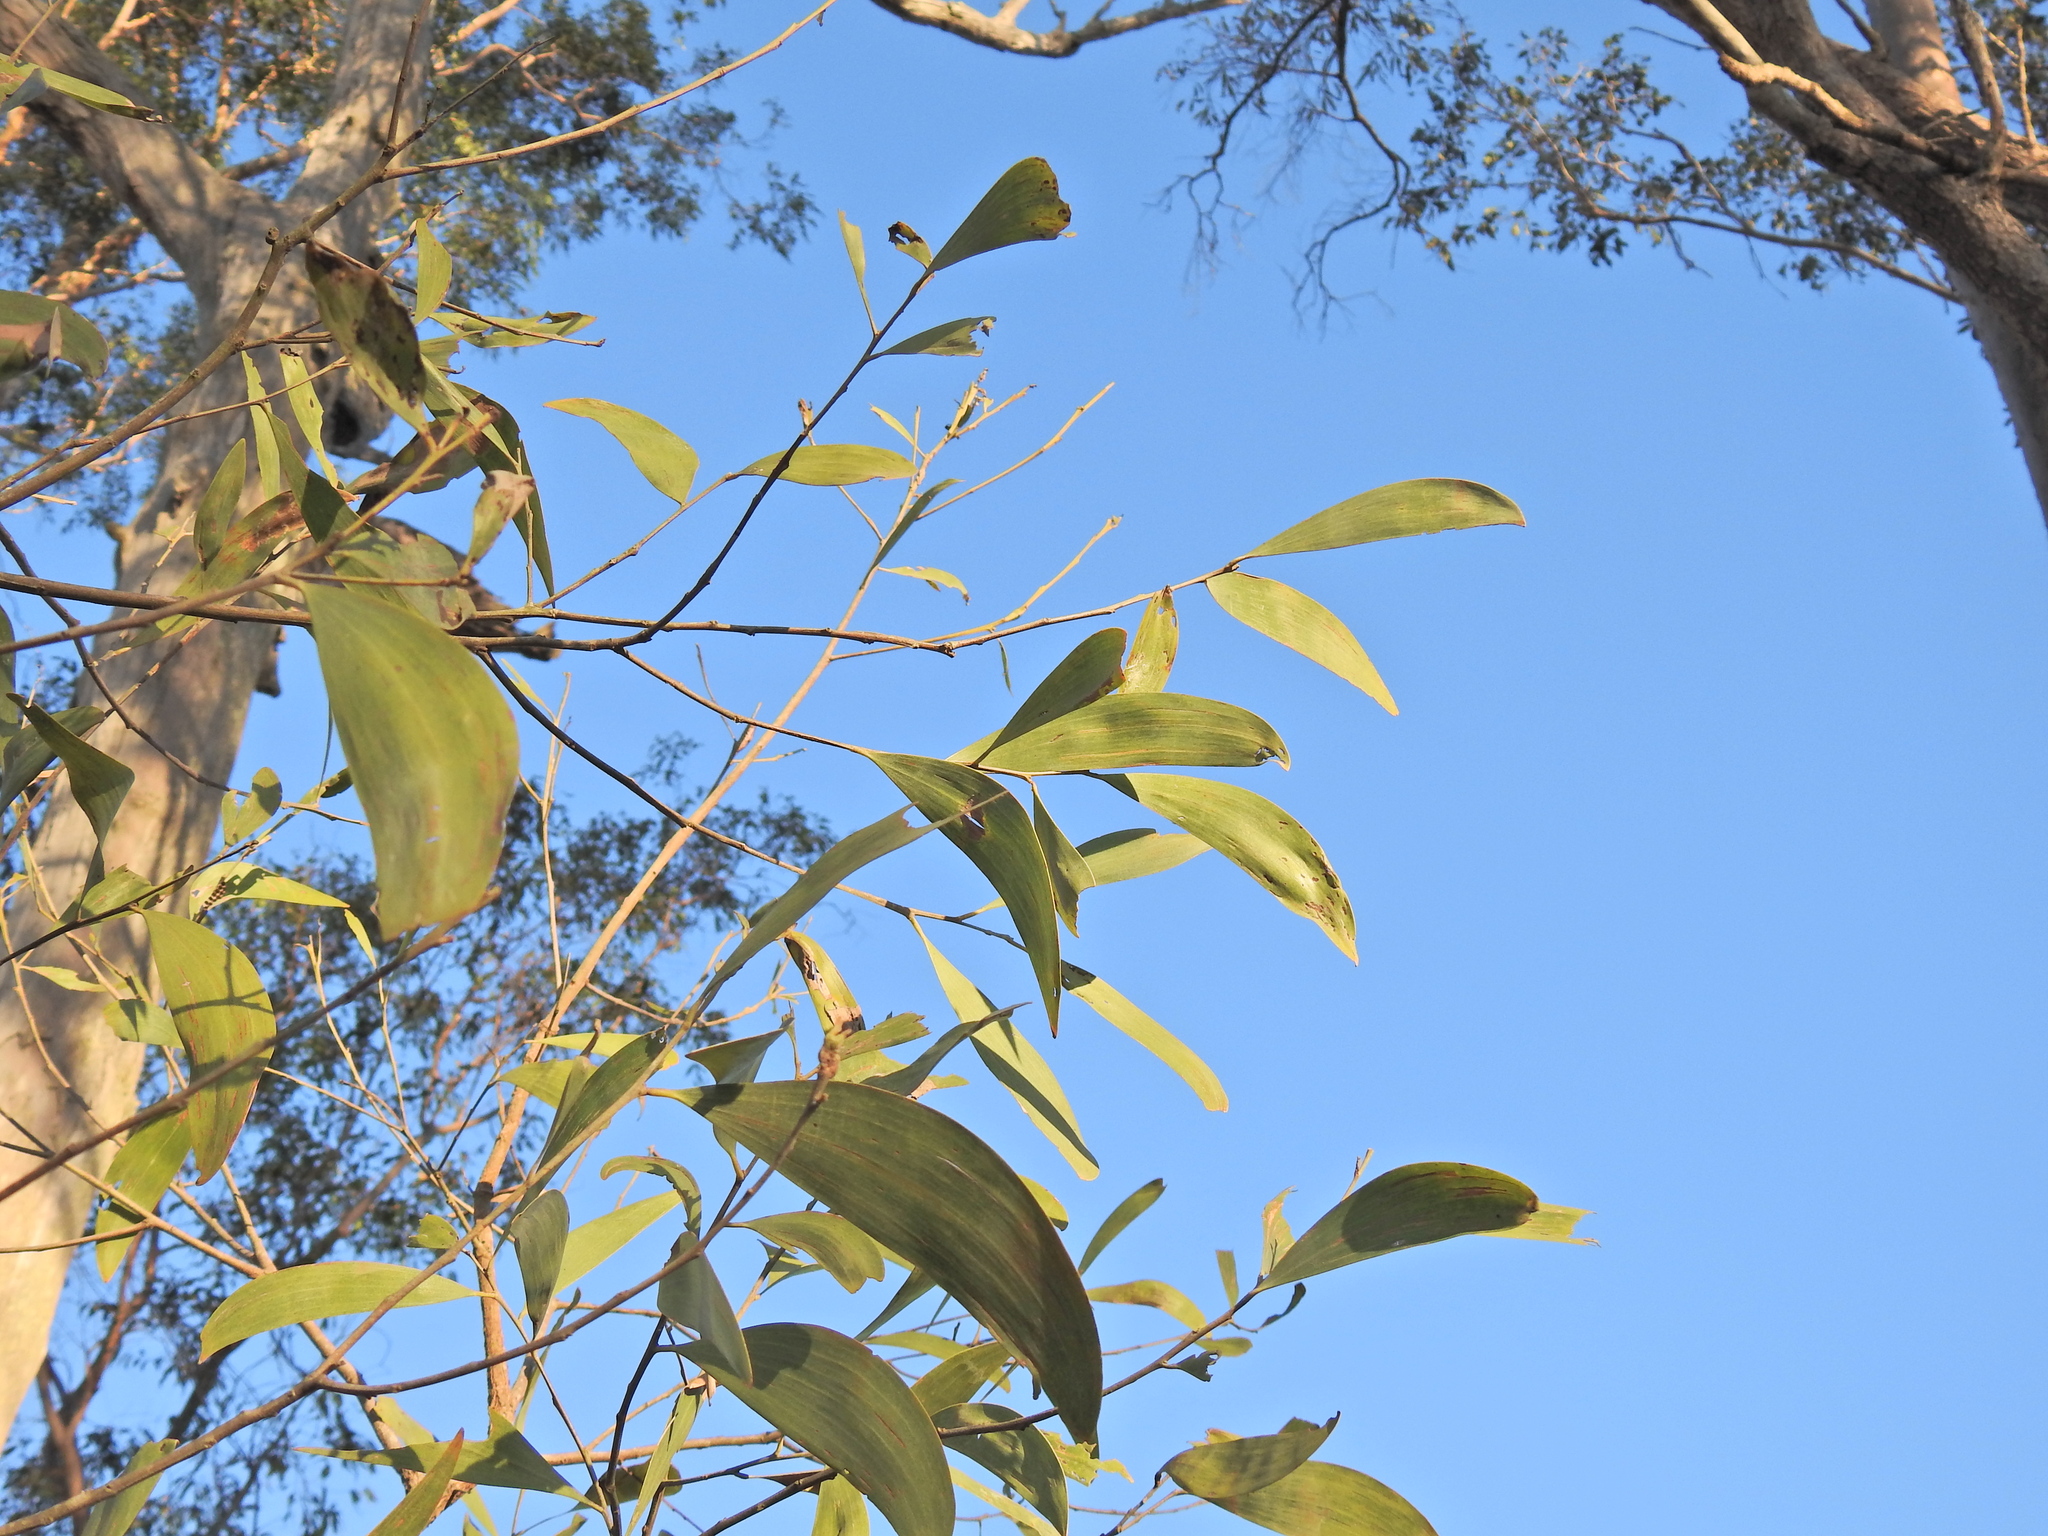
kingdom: Plantae
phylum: Tracheophyta
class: Magnoliopsida
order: Fabales
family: Fabaceae
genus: Acacia
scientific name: Acacia disparrima
